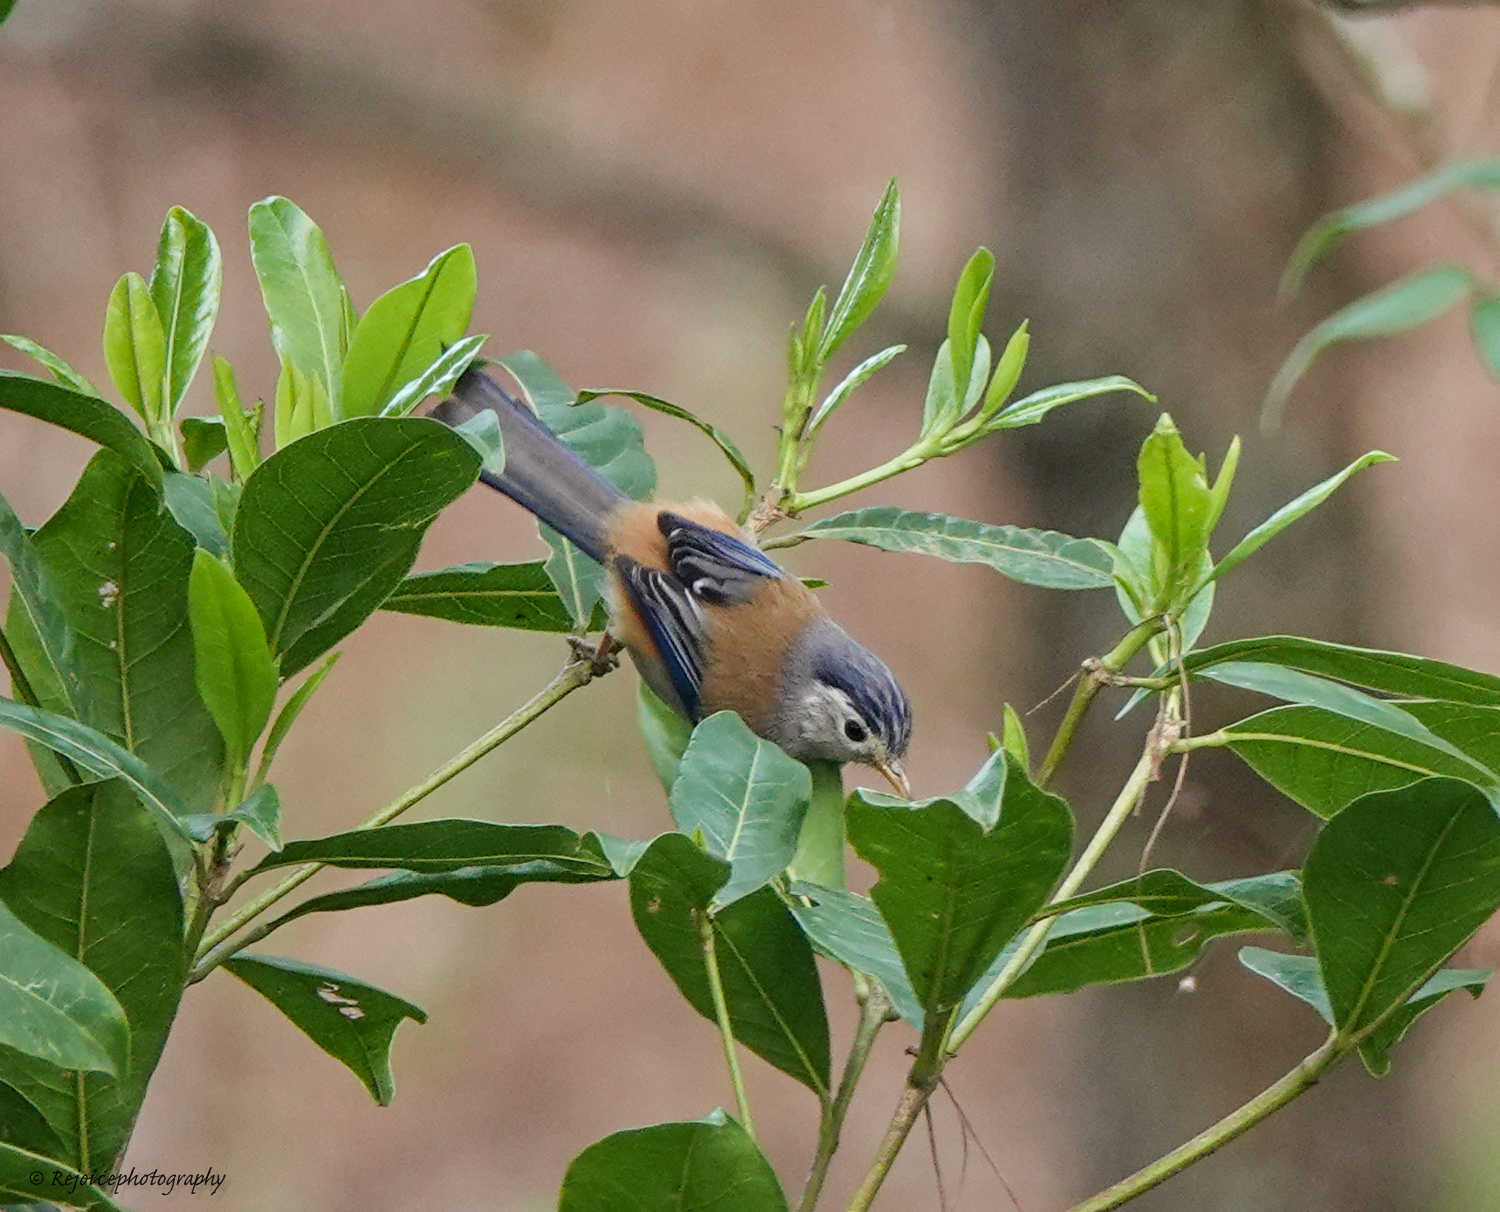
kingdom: Animalia
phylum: Chordata
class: Aves
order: Passeriformes
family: Leiothrichidae
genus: Minla
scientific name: Minla cyanouroptera
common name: Blue-winged minla
